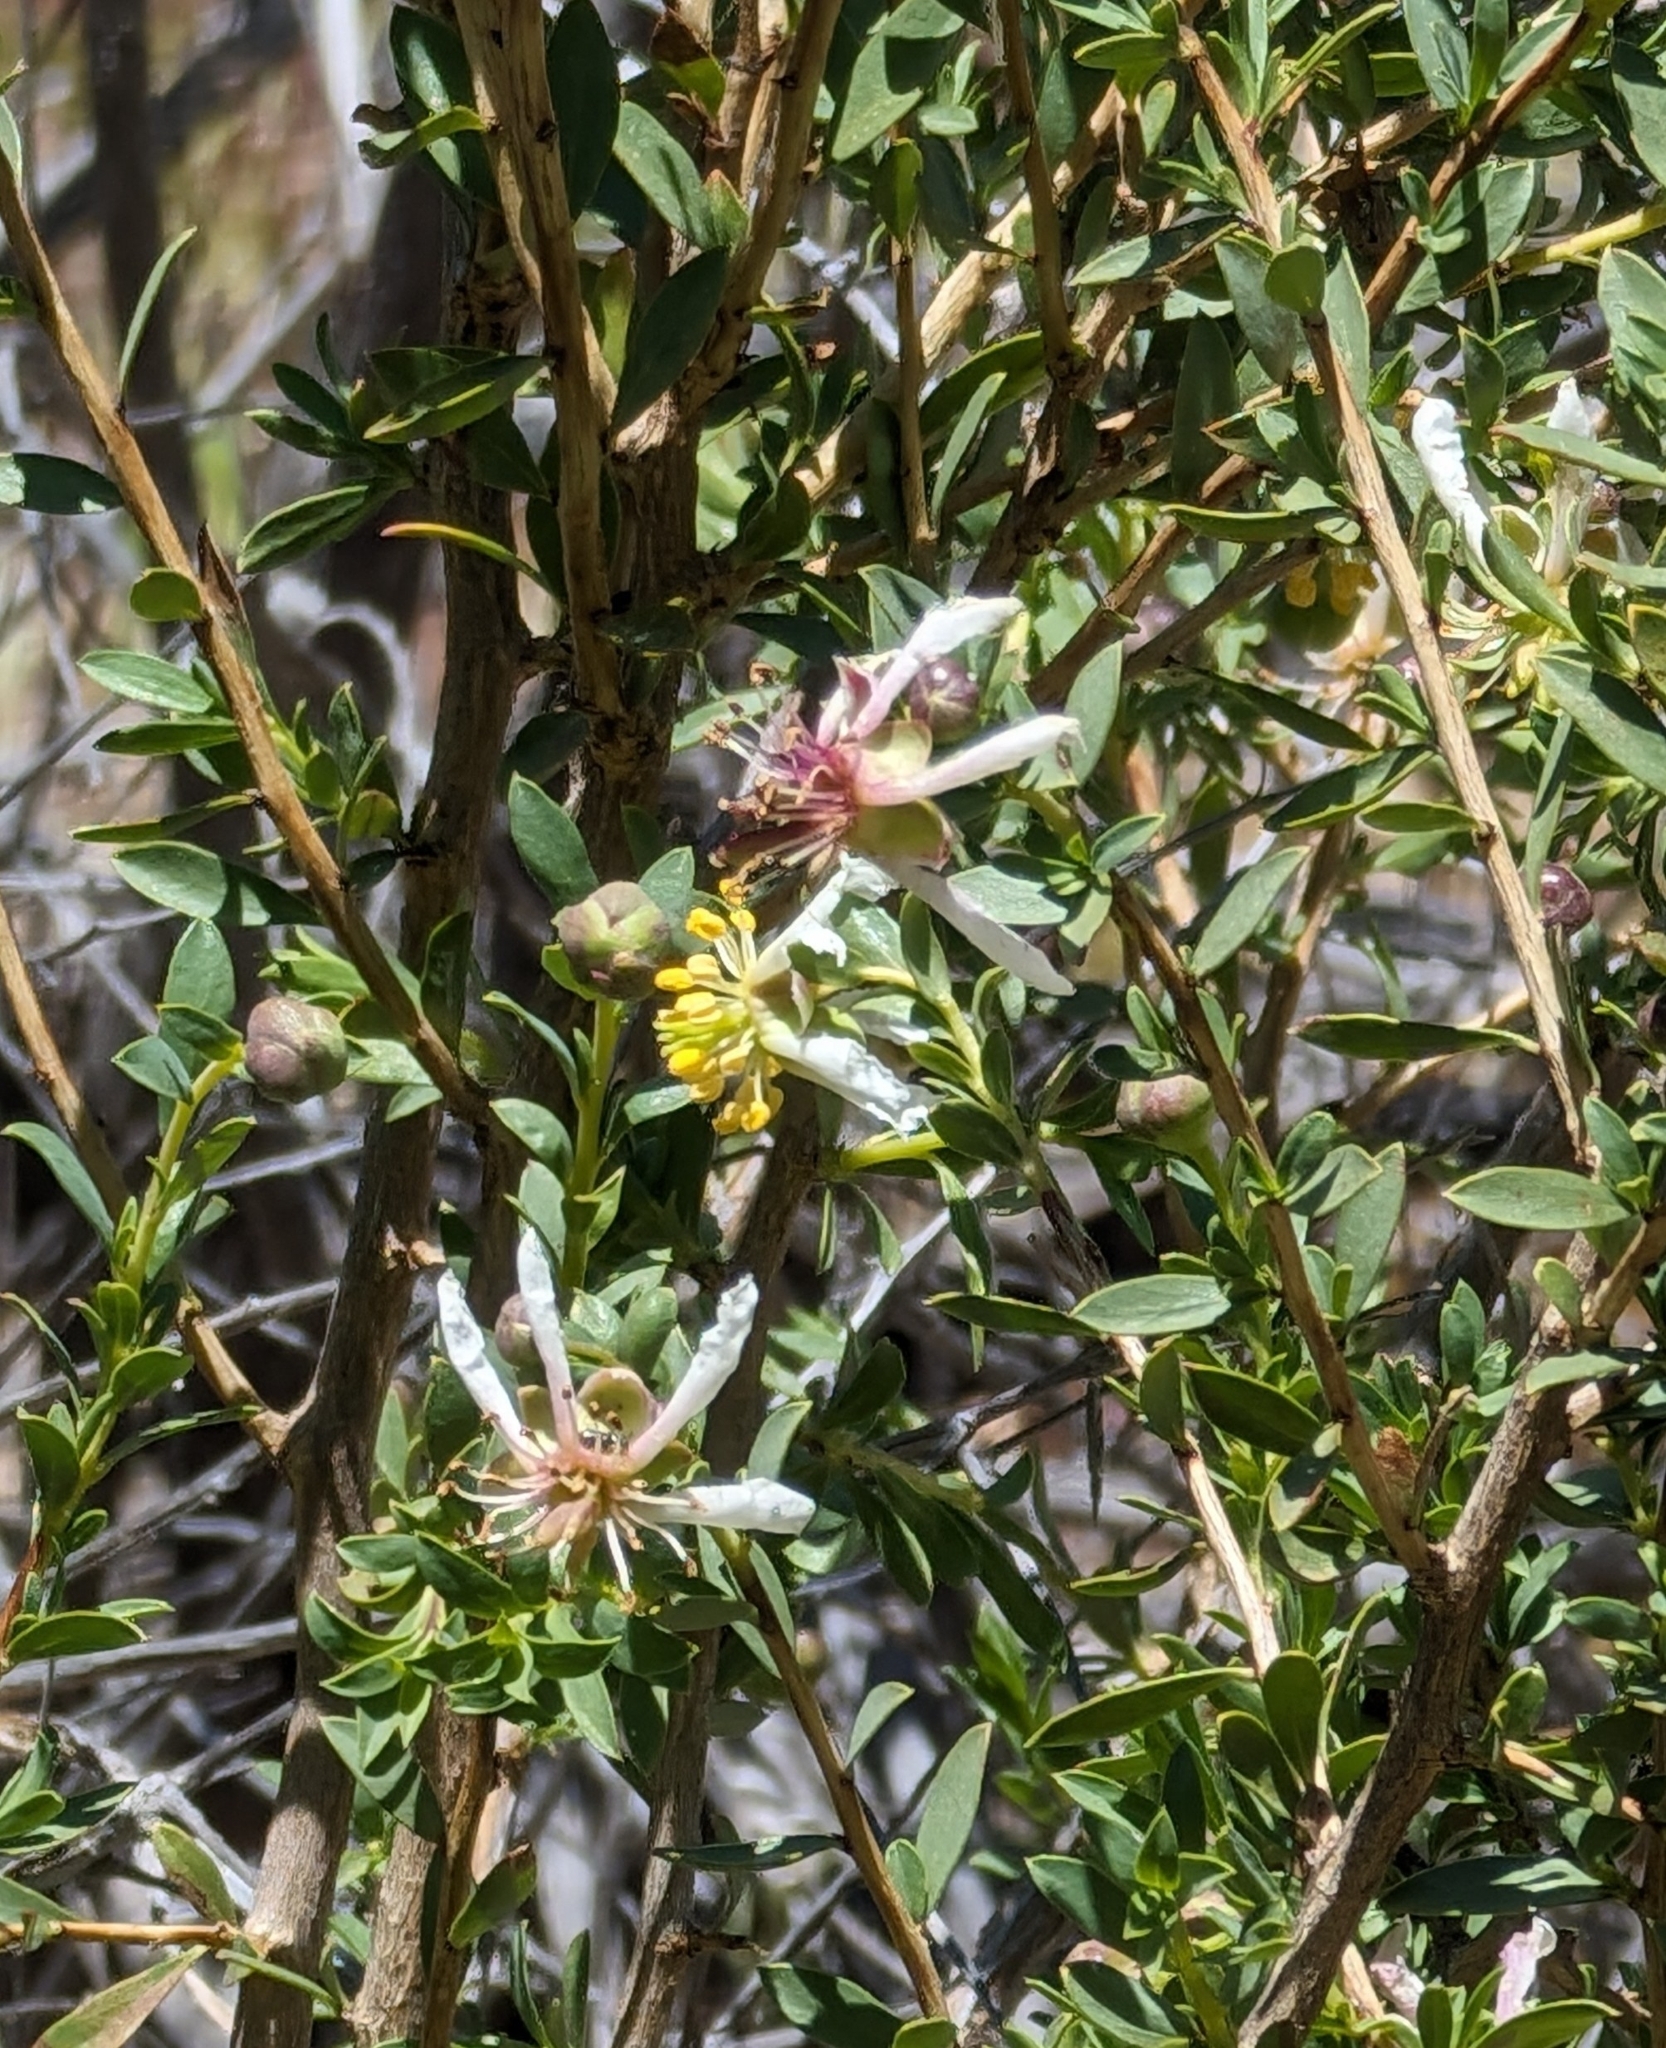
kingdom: Plantae
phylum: Tracheophyta
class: Magnoliopsida
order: Crossosomatales
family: Crossosomataceae
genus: Crossosoma
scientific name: Crossosoma bigelovii
